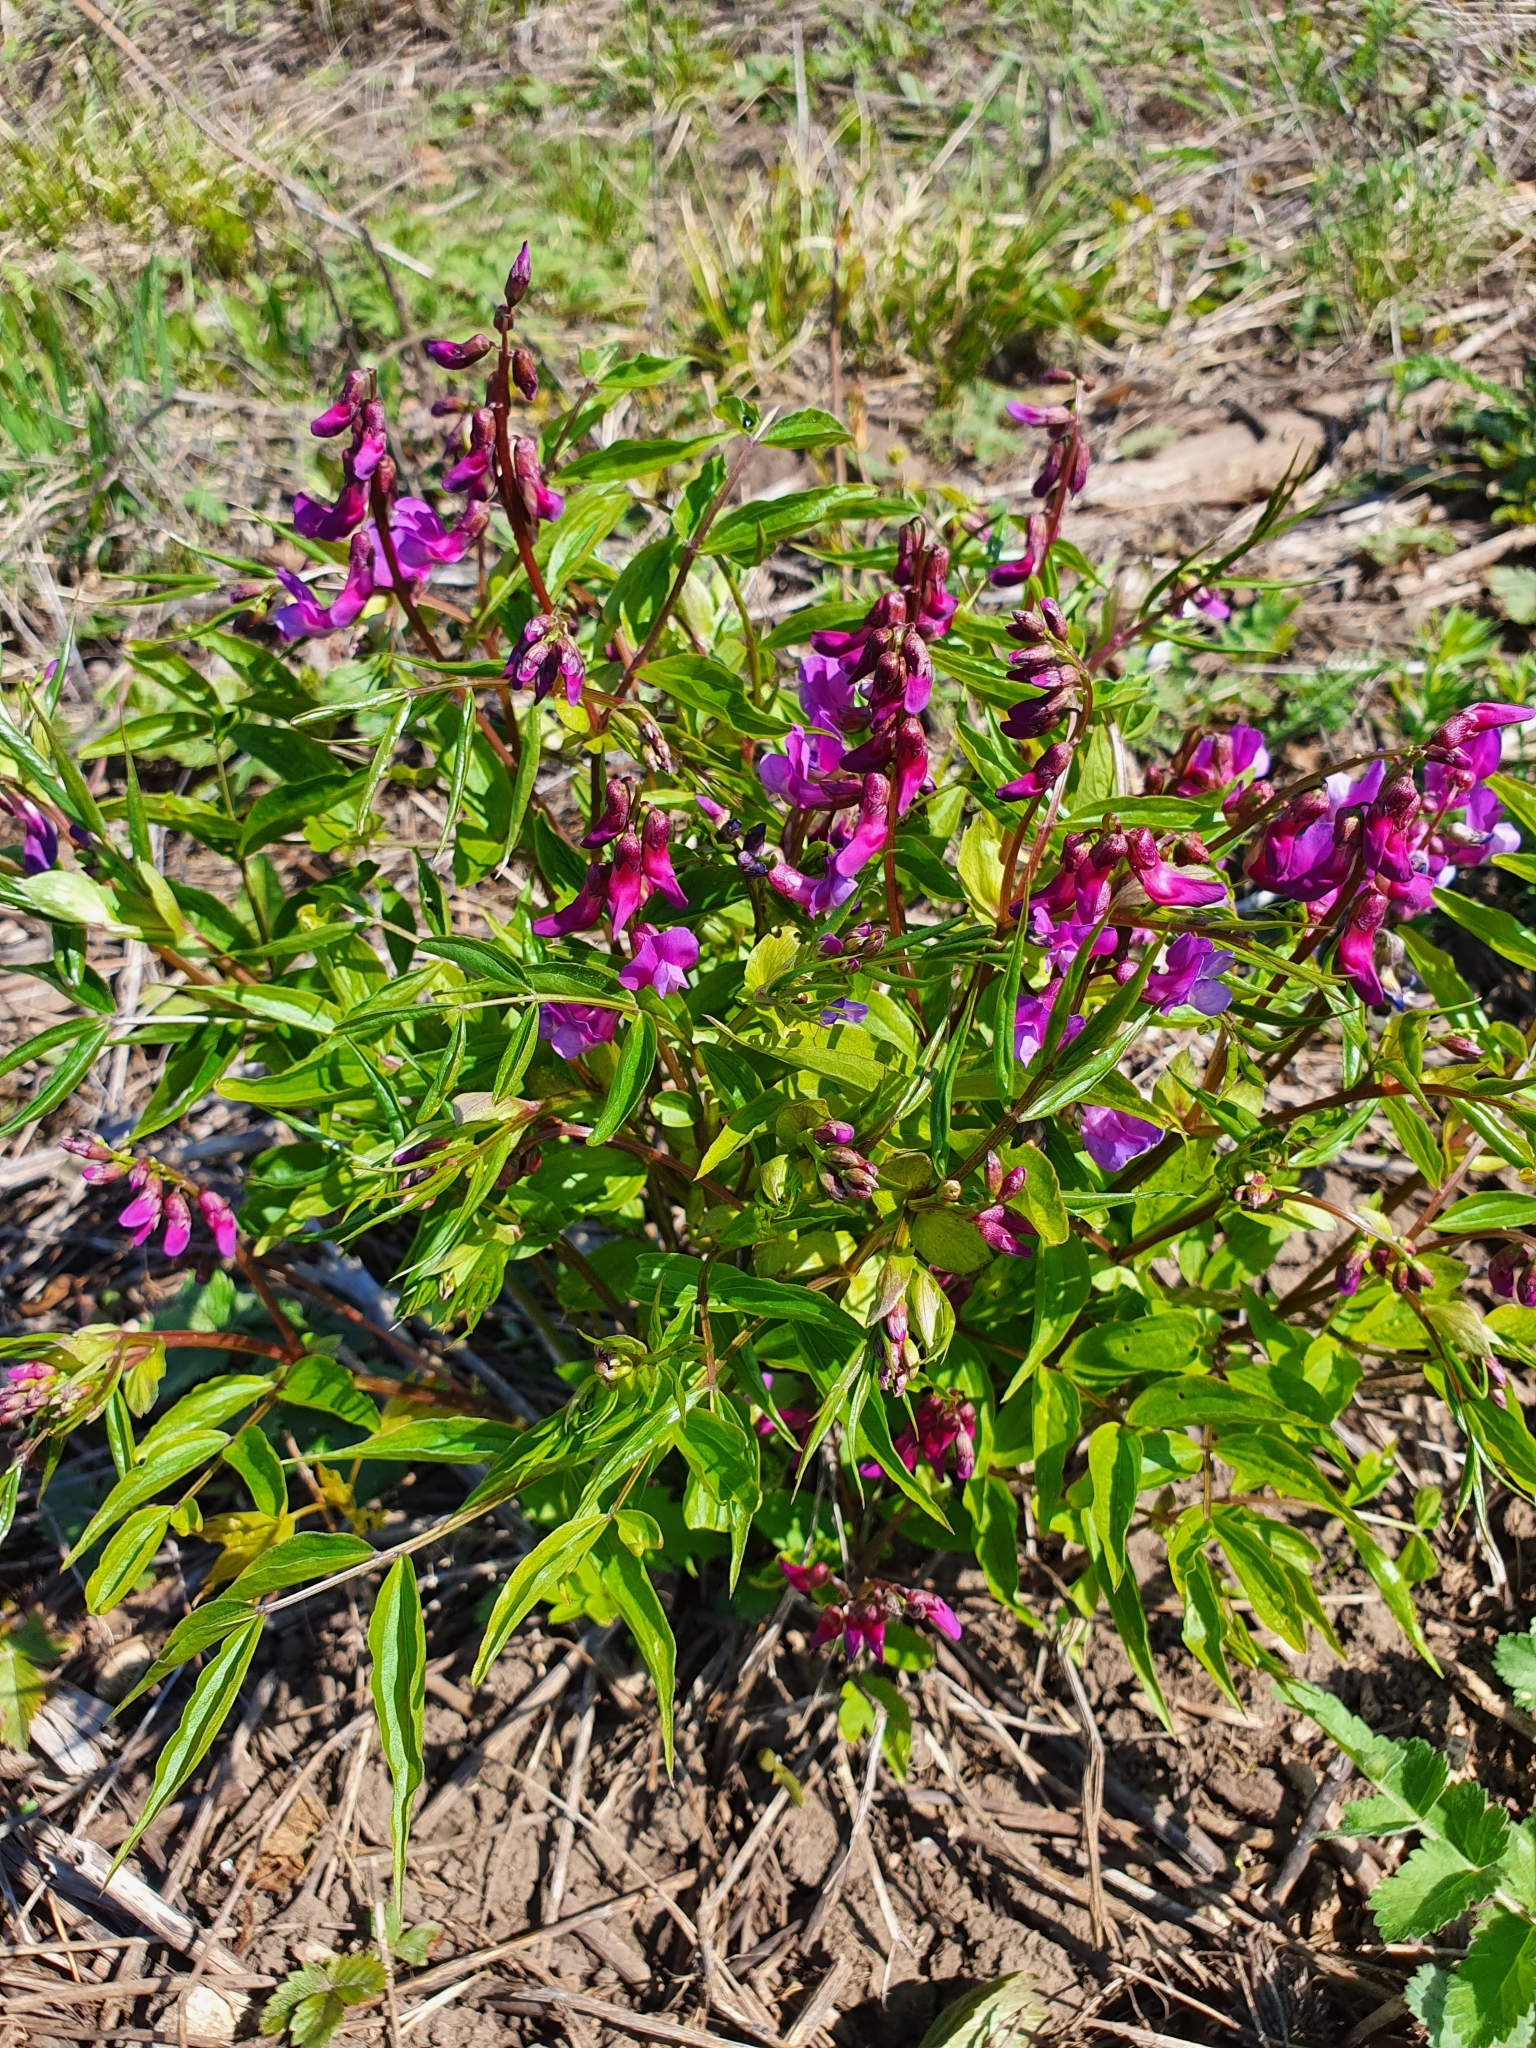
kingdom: Plantae
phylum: Tracheophyta
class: Magnoliopsida
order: Fabales
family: Fabaceae
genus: Lathyrus
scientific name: Lathyrus vernus
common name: Spring pea
